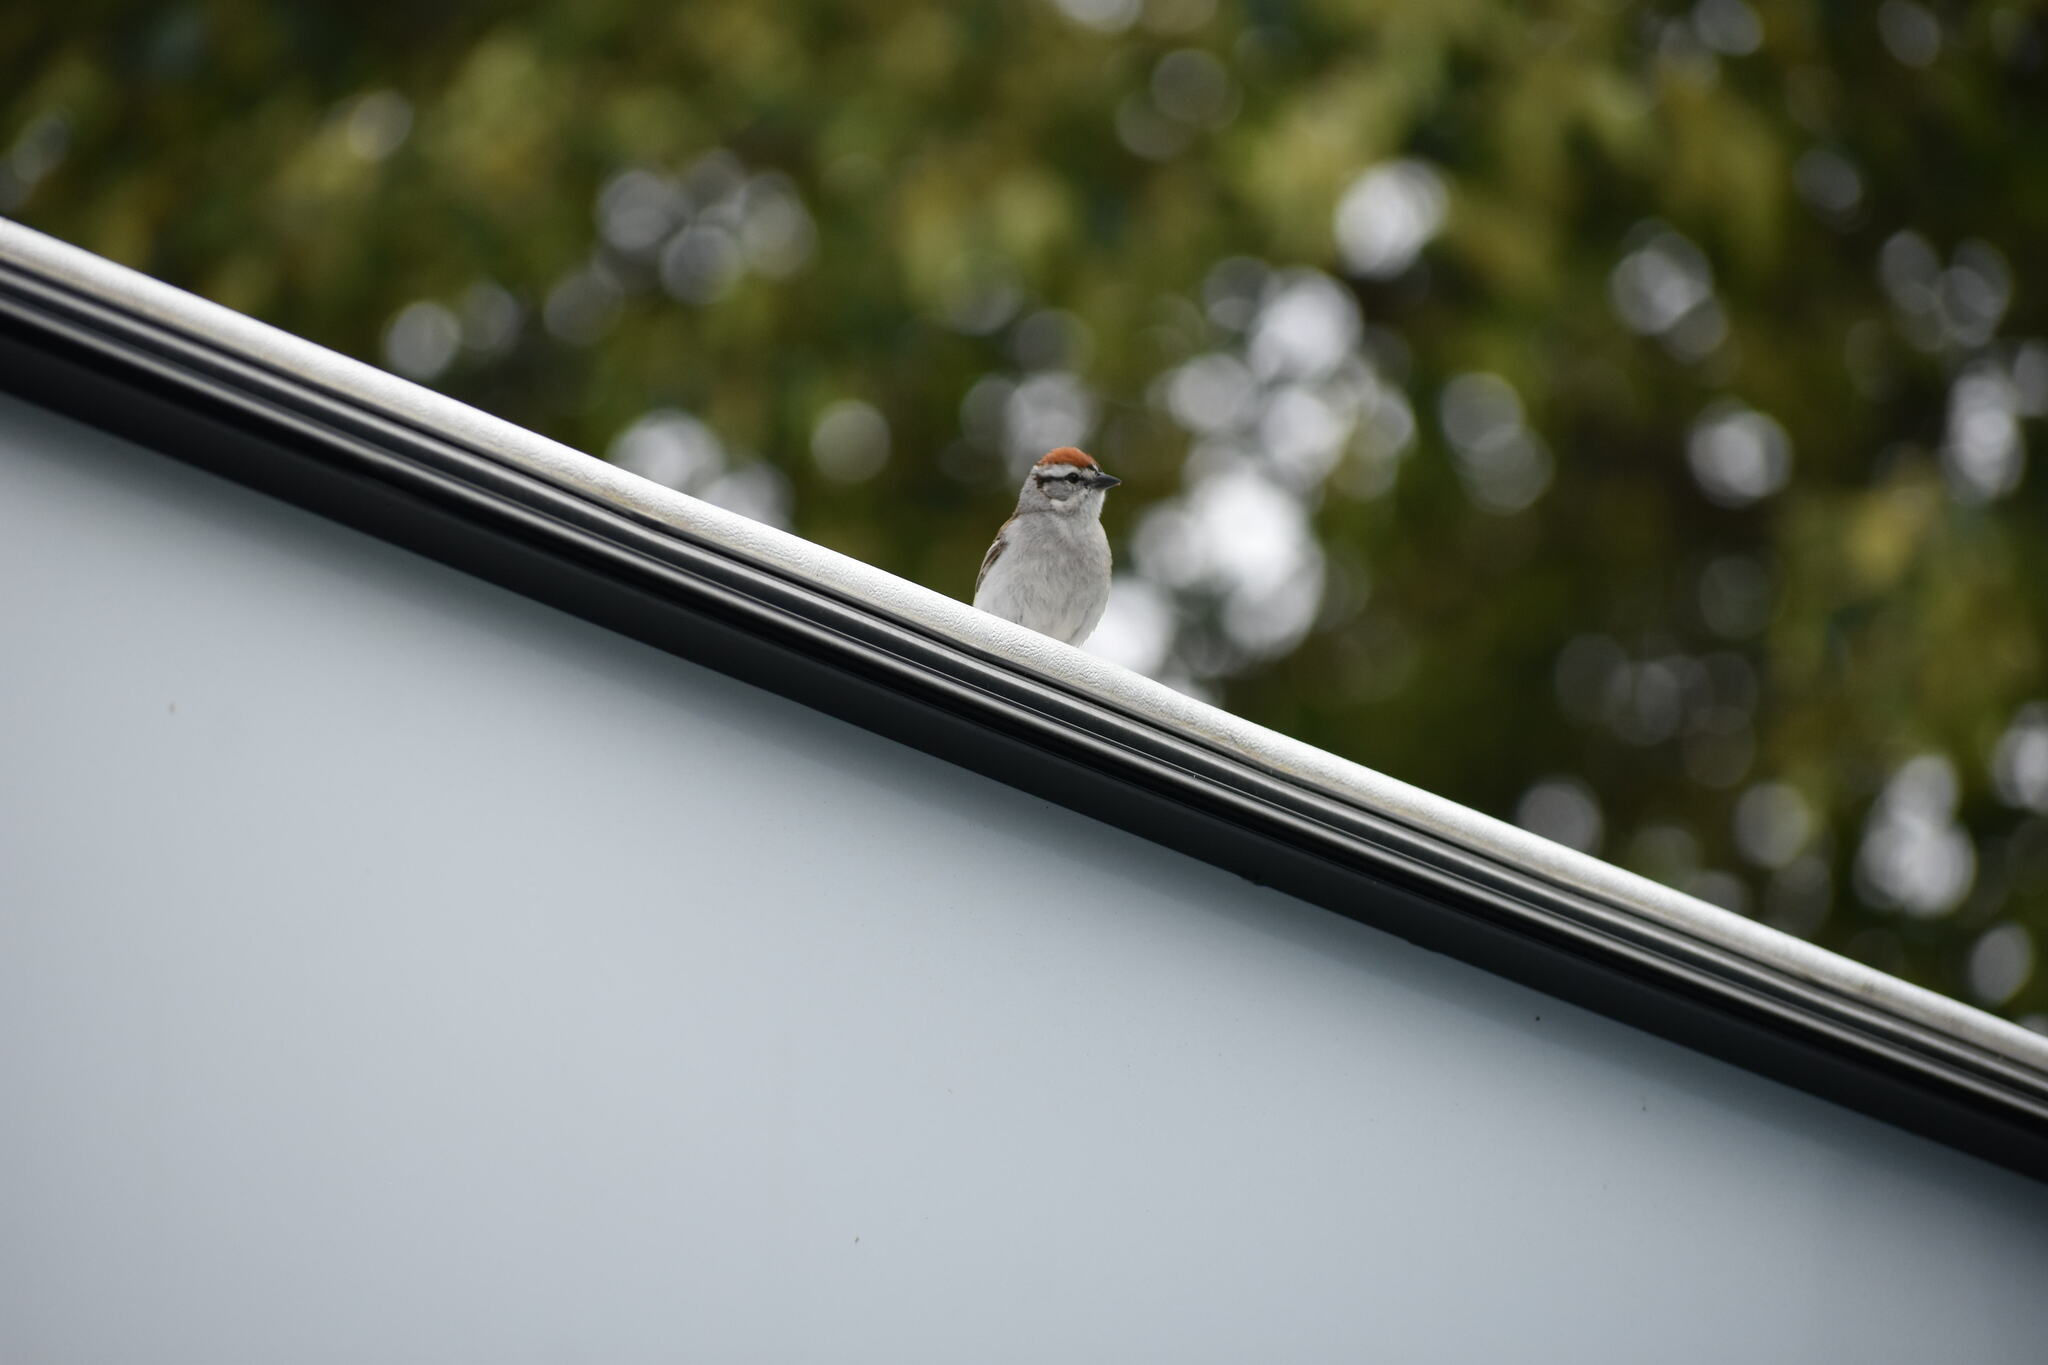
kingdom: Animalia
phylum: Chordata
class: Aves
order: Passeriformes
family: Passerellidae
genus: Spizella
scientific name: Spizella passerina
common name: Chipping sparrow
